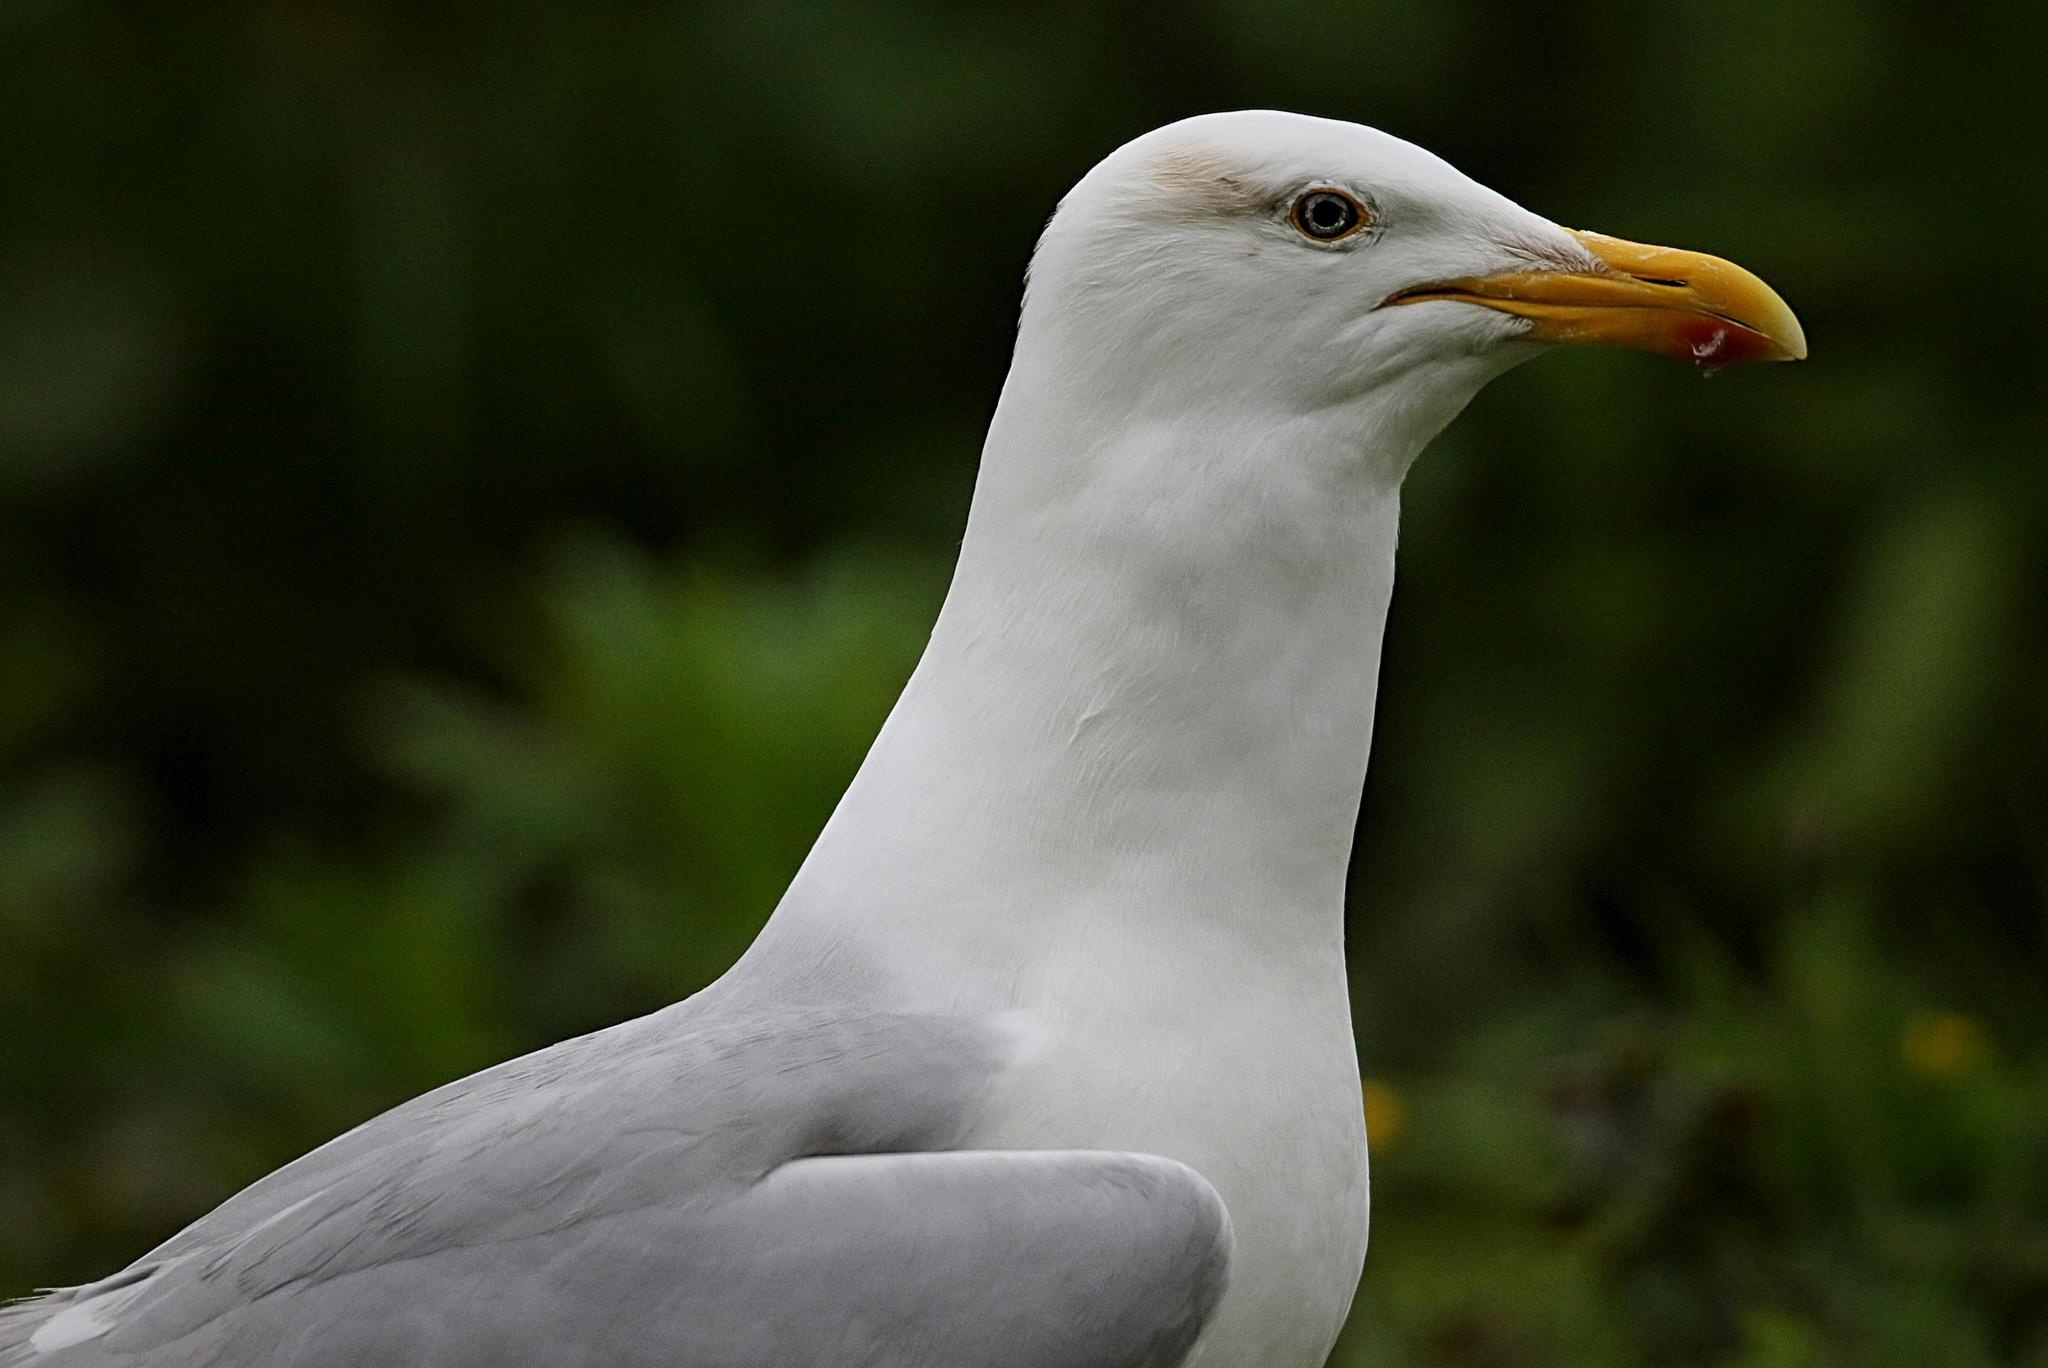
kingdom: Animalia
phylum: Chordata
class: Aves
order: Charadriiformes
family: Laridae
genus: Larus
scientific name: Larus argentatus
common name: Herring gull
